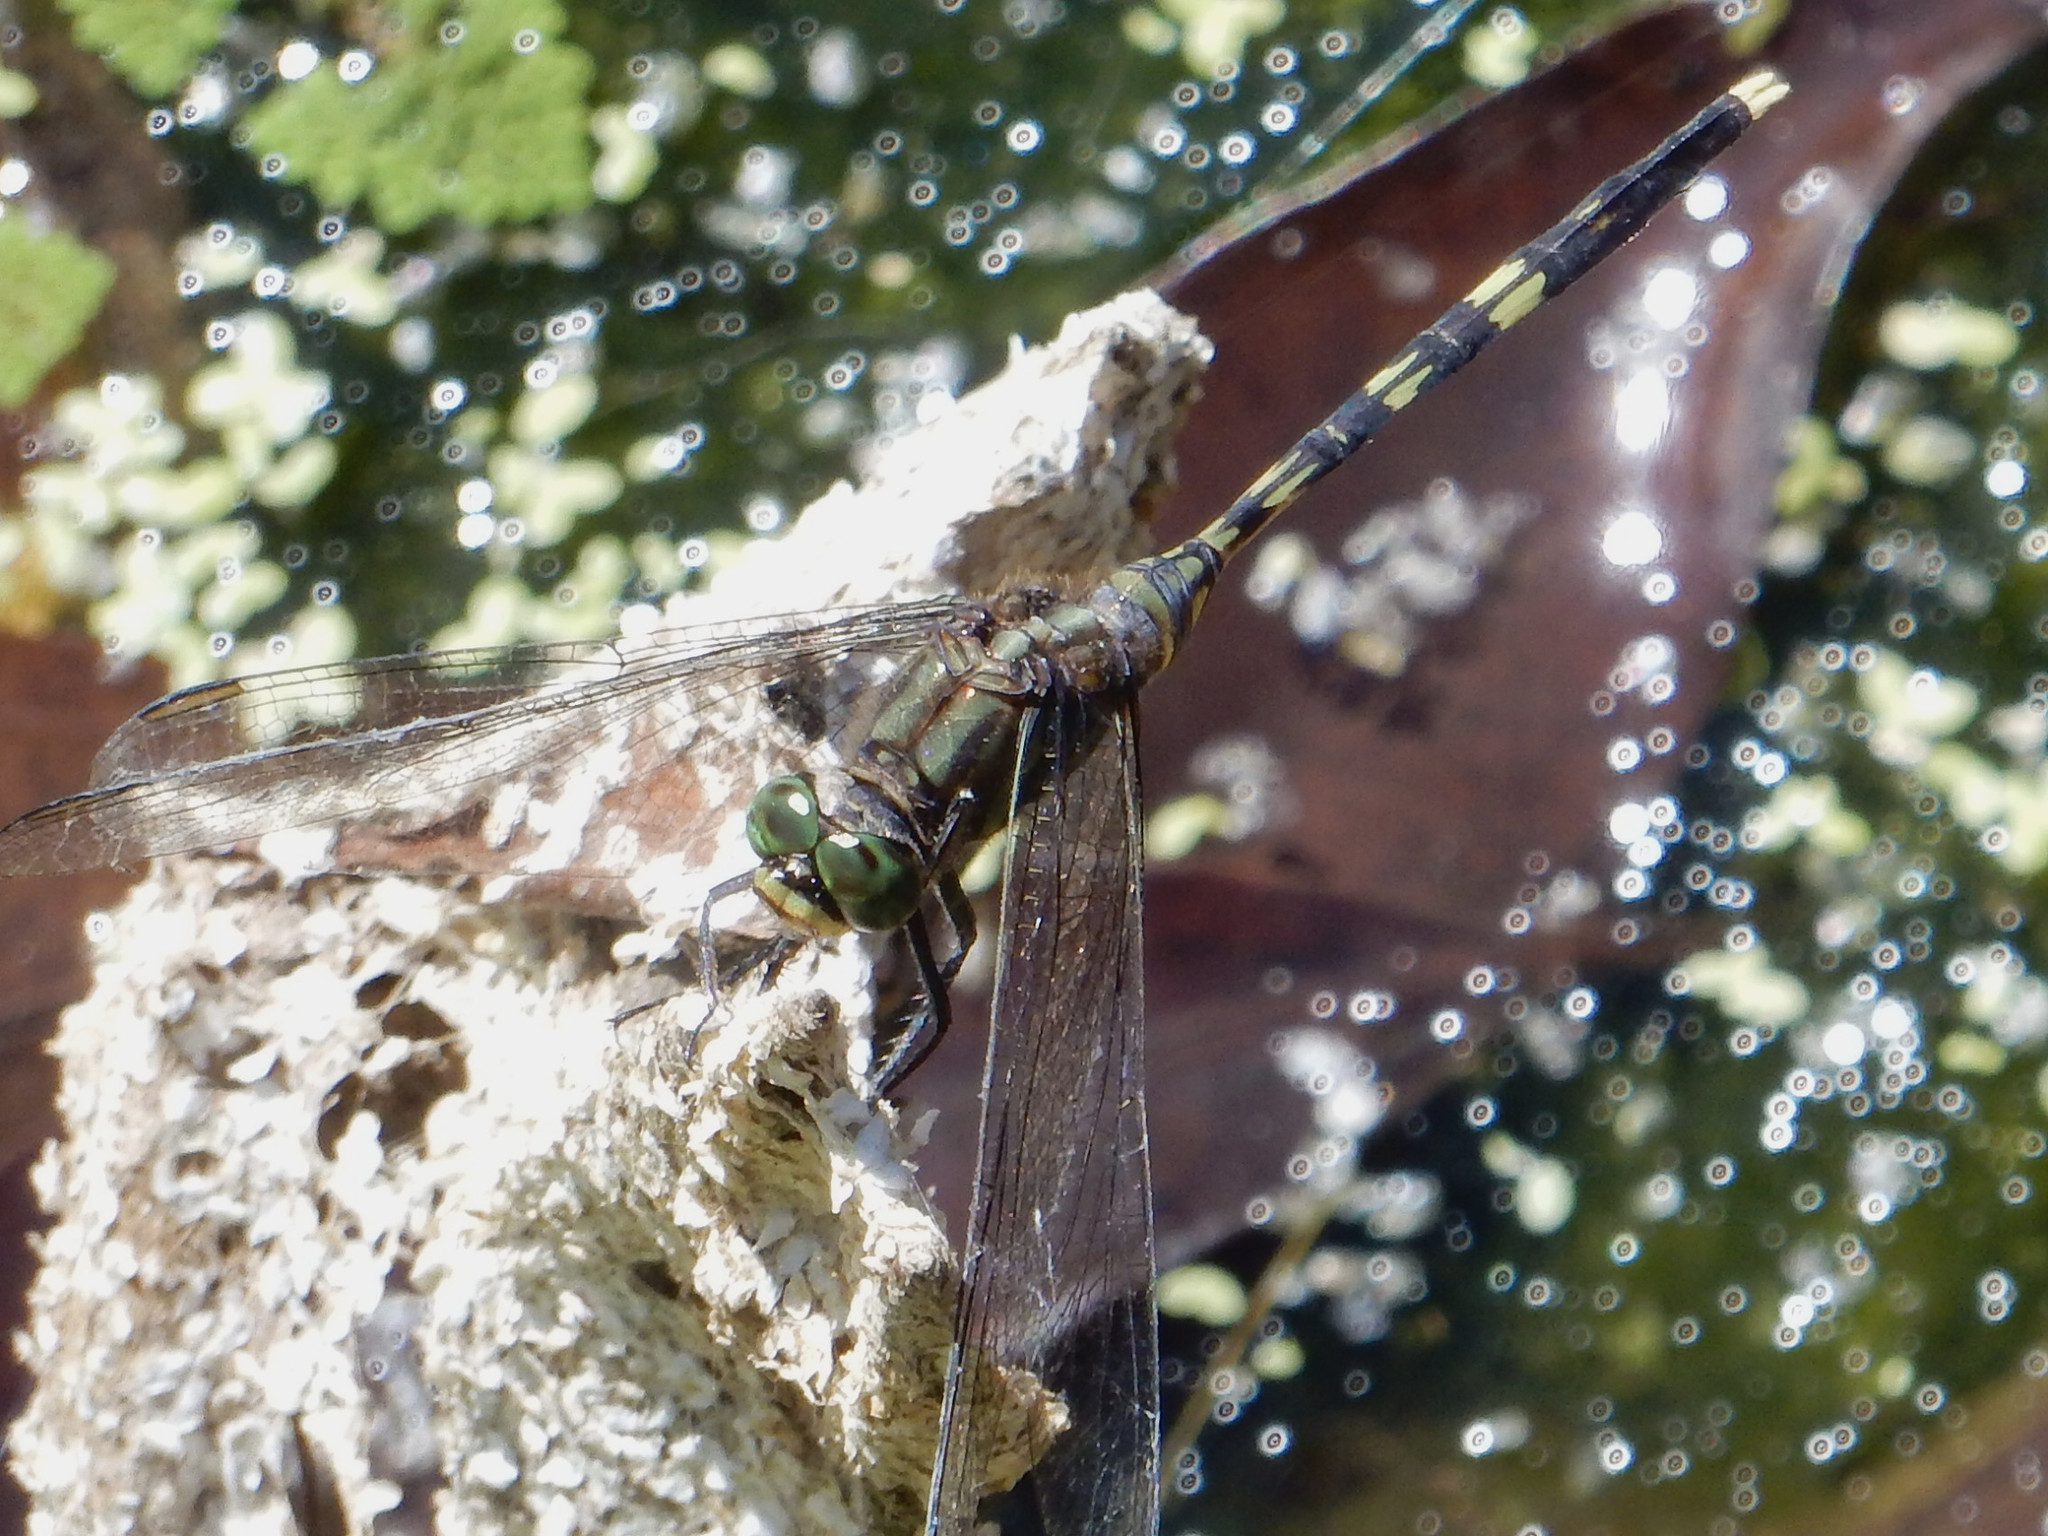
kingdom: Animalia
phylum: Arthropoda
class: Insecta
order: Odonata
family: Libellulidae
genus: Orthetrum
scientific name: Orthetrum serapia
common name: Green skimmer
